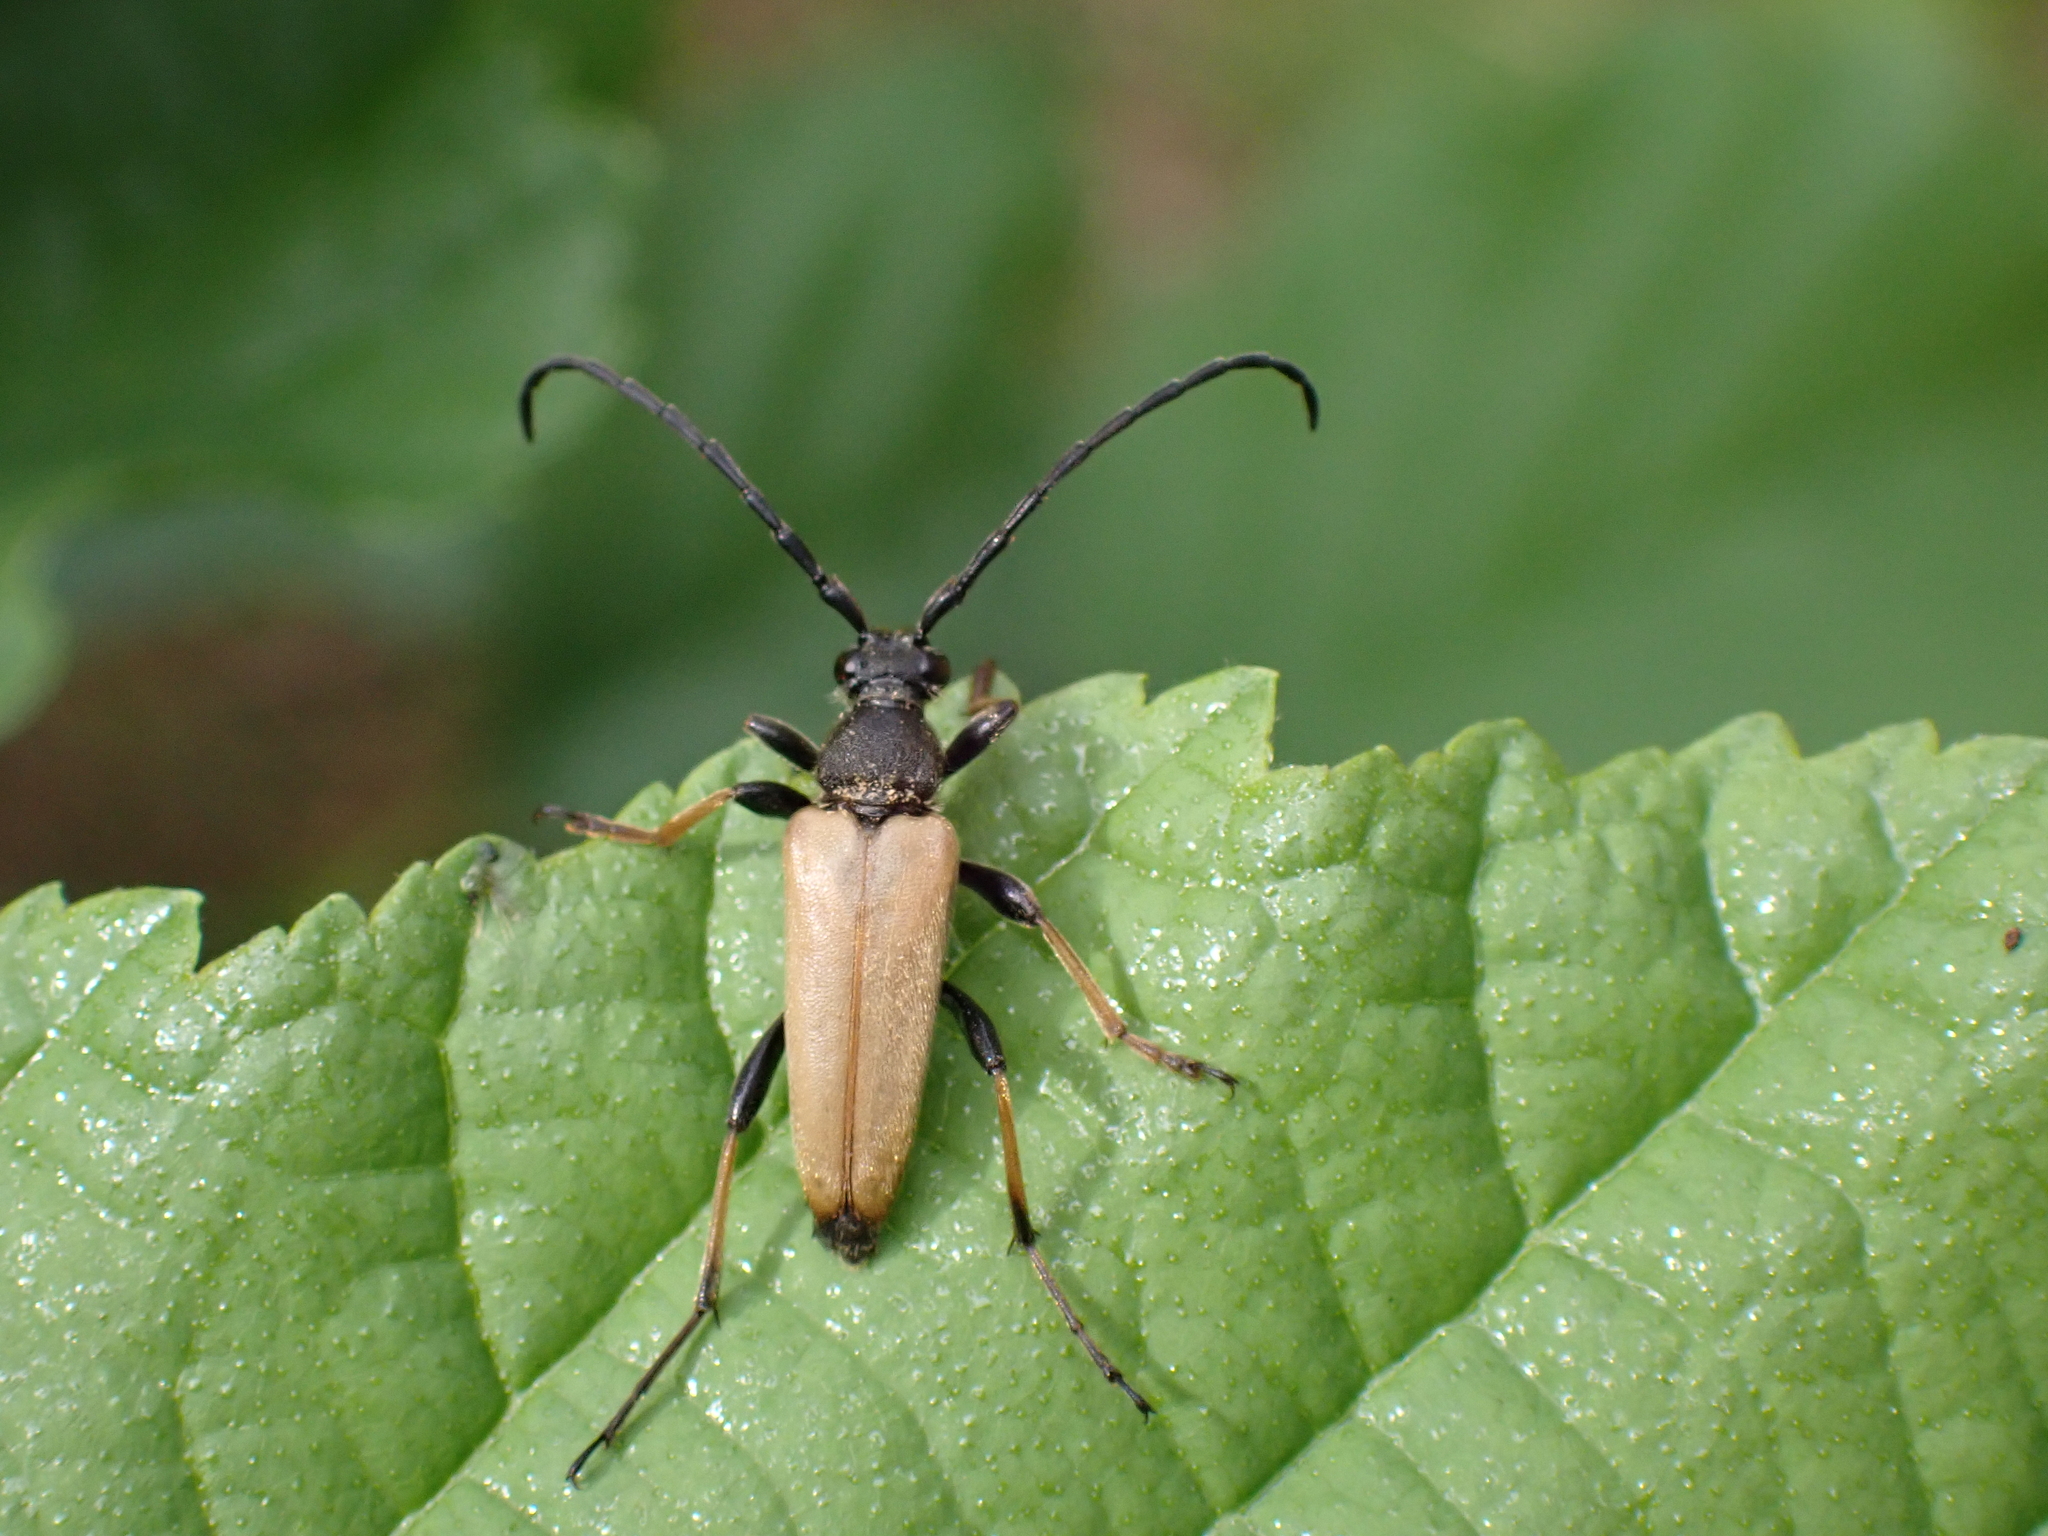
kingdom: Animalia
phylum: Arthropoda
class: Insecta
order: Coleoptera
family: Cerambycidae
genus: Stictoleptura
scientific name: Stictoleptura rubra
